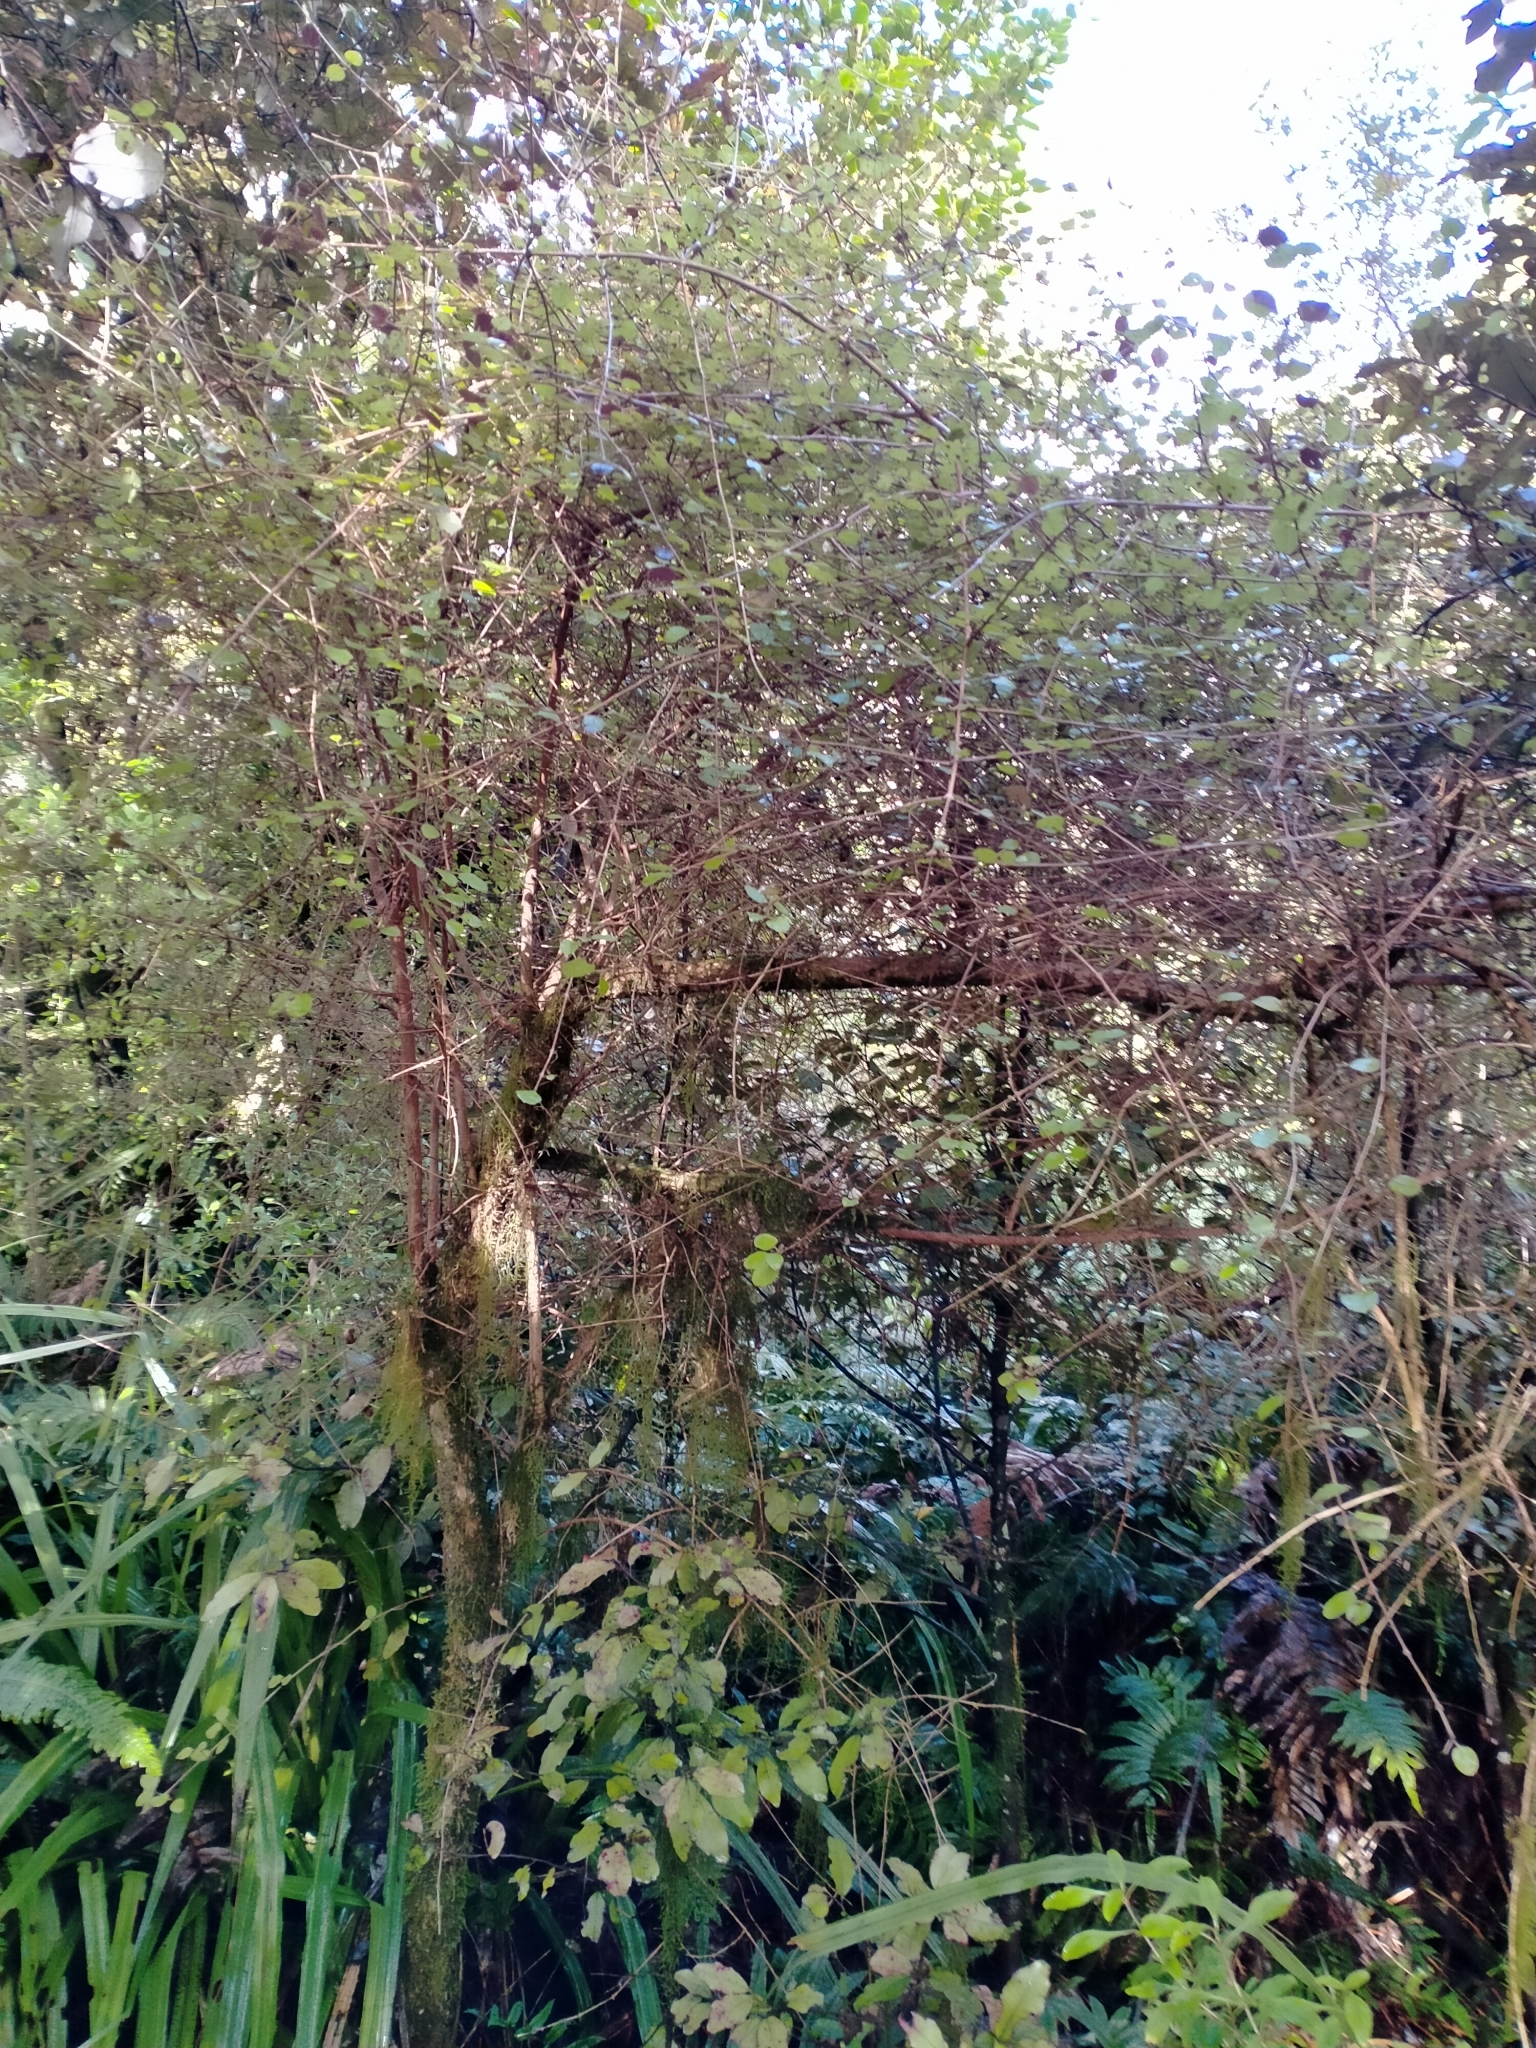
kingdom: Plantae
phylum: Tracheophyta
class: Magnoliopsida
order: Gentianales
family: Rubiaceae
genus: Coprosma
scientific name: Coprosma rotundifolia
